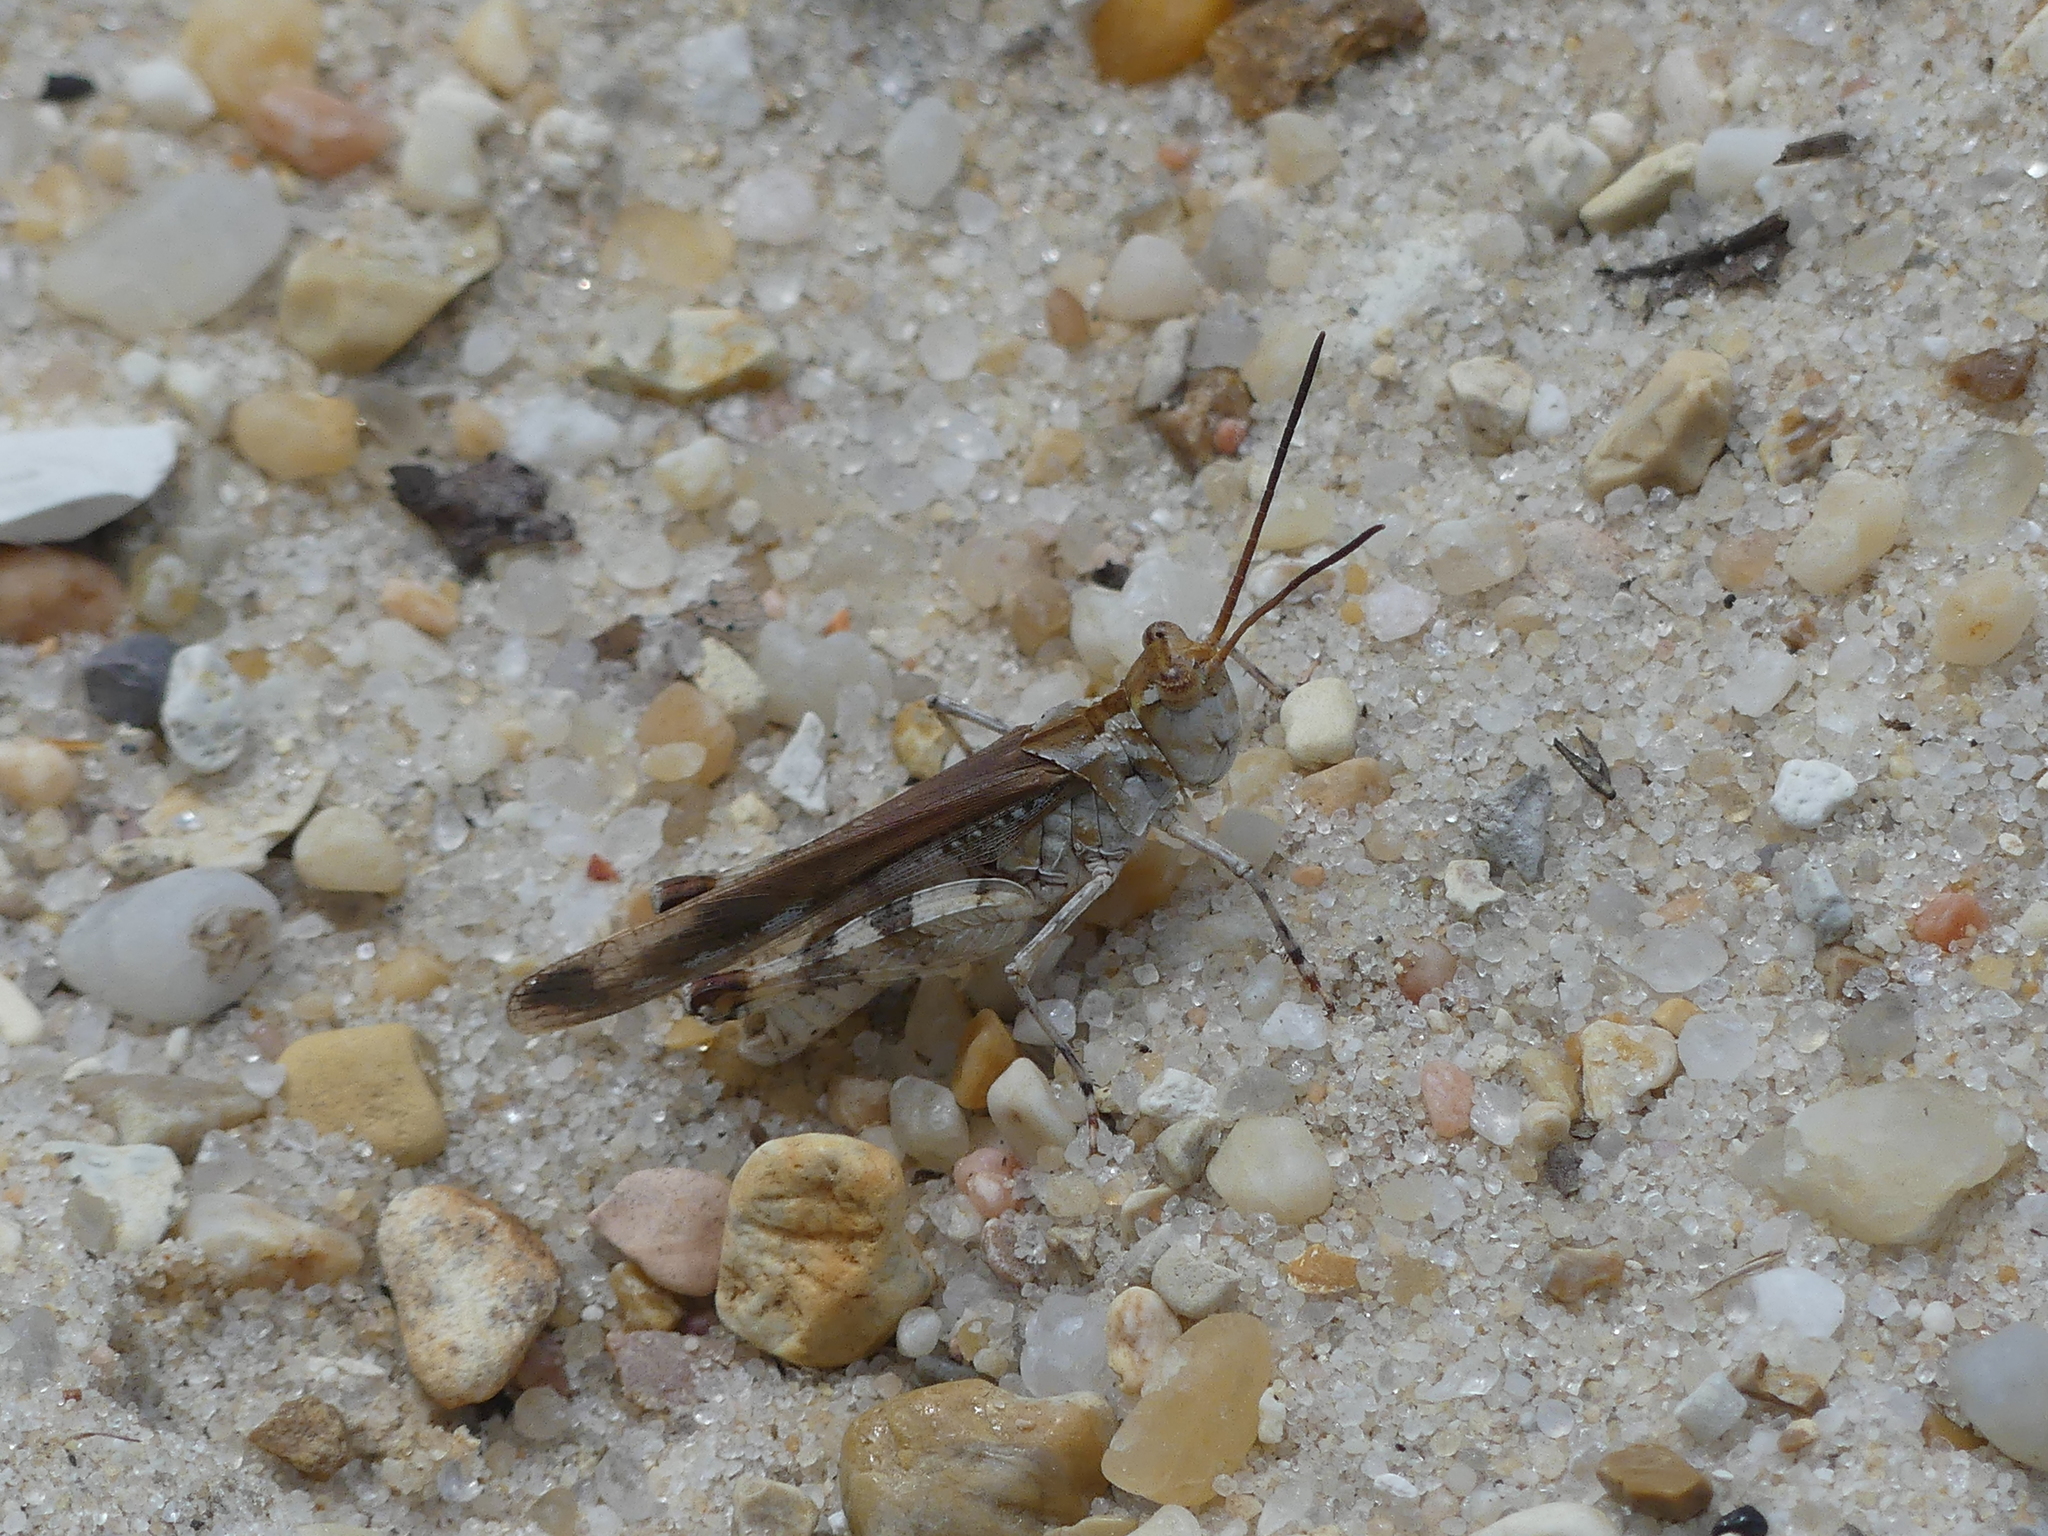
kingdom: Animalia
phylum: Arthropoda
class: Insecta
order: Orthoptera
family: Acrididae
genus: Psinidia
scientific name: Psinidia fenestralis
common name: Long-horned locust
